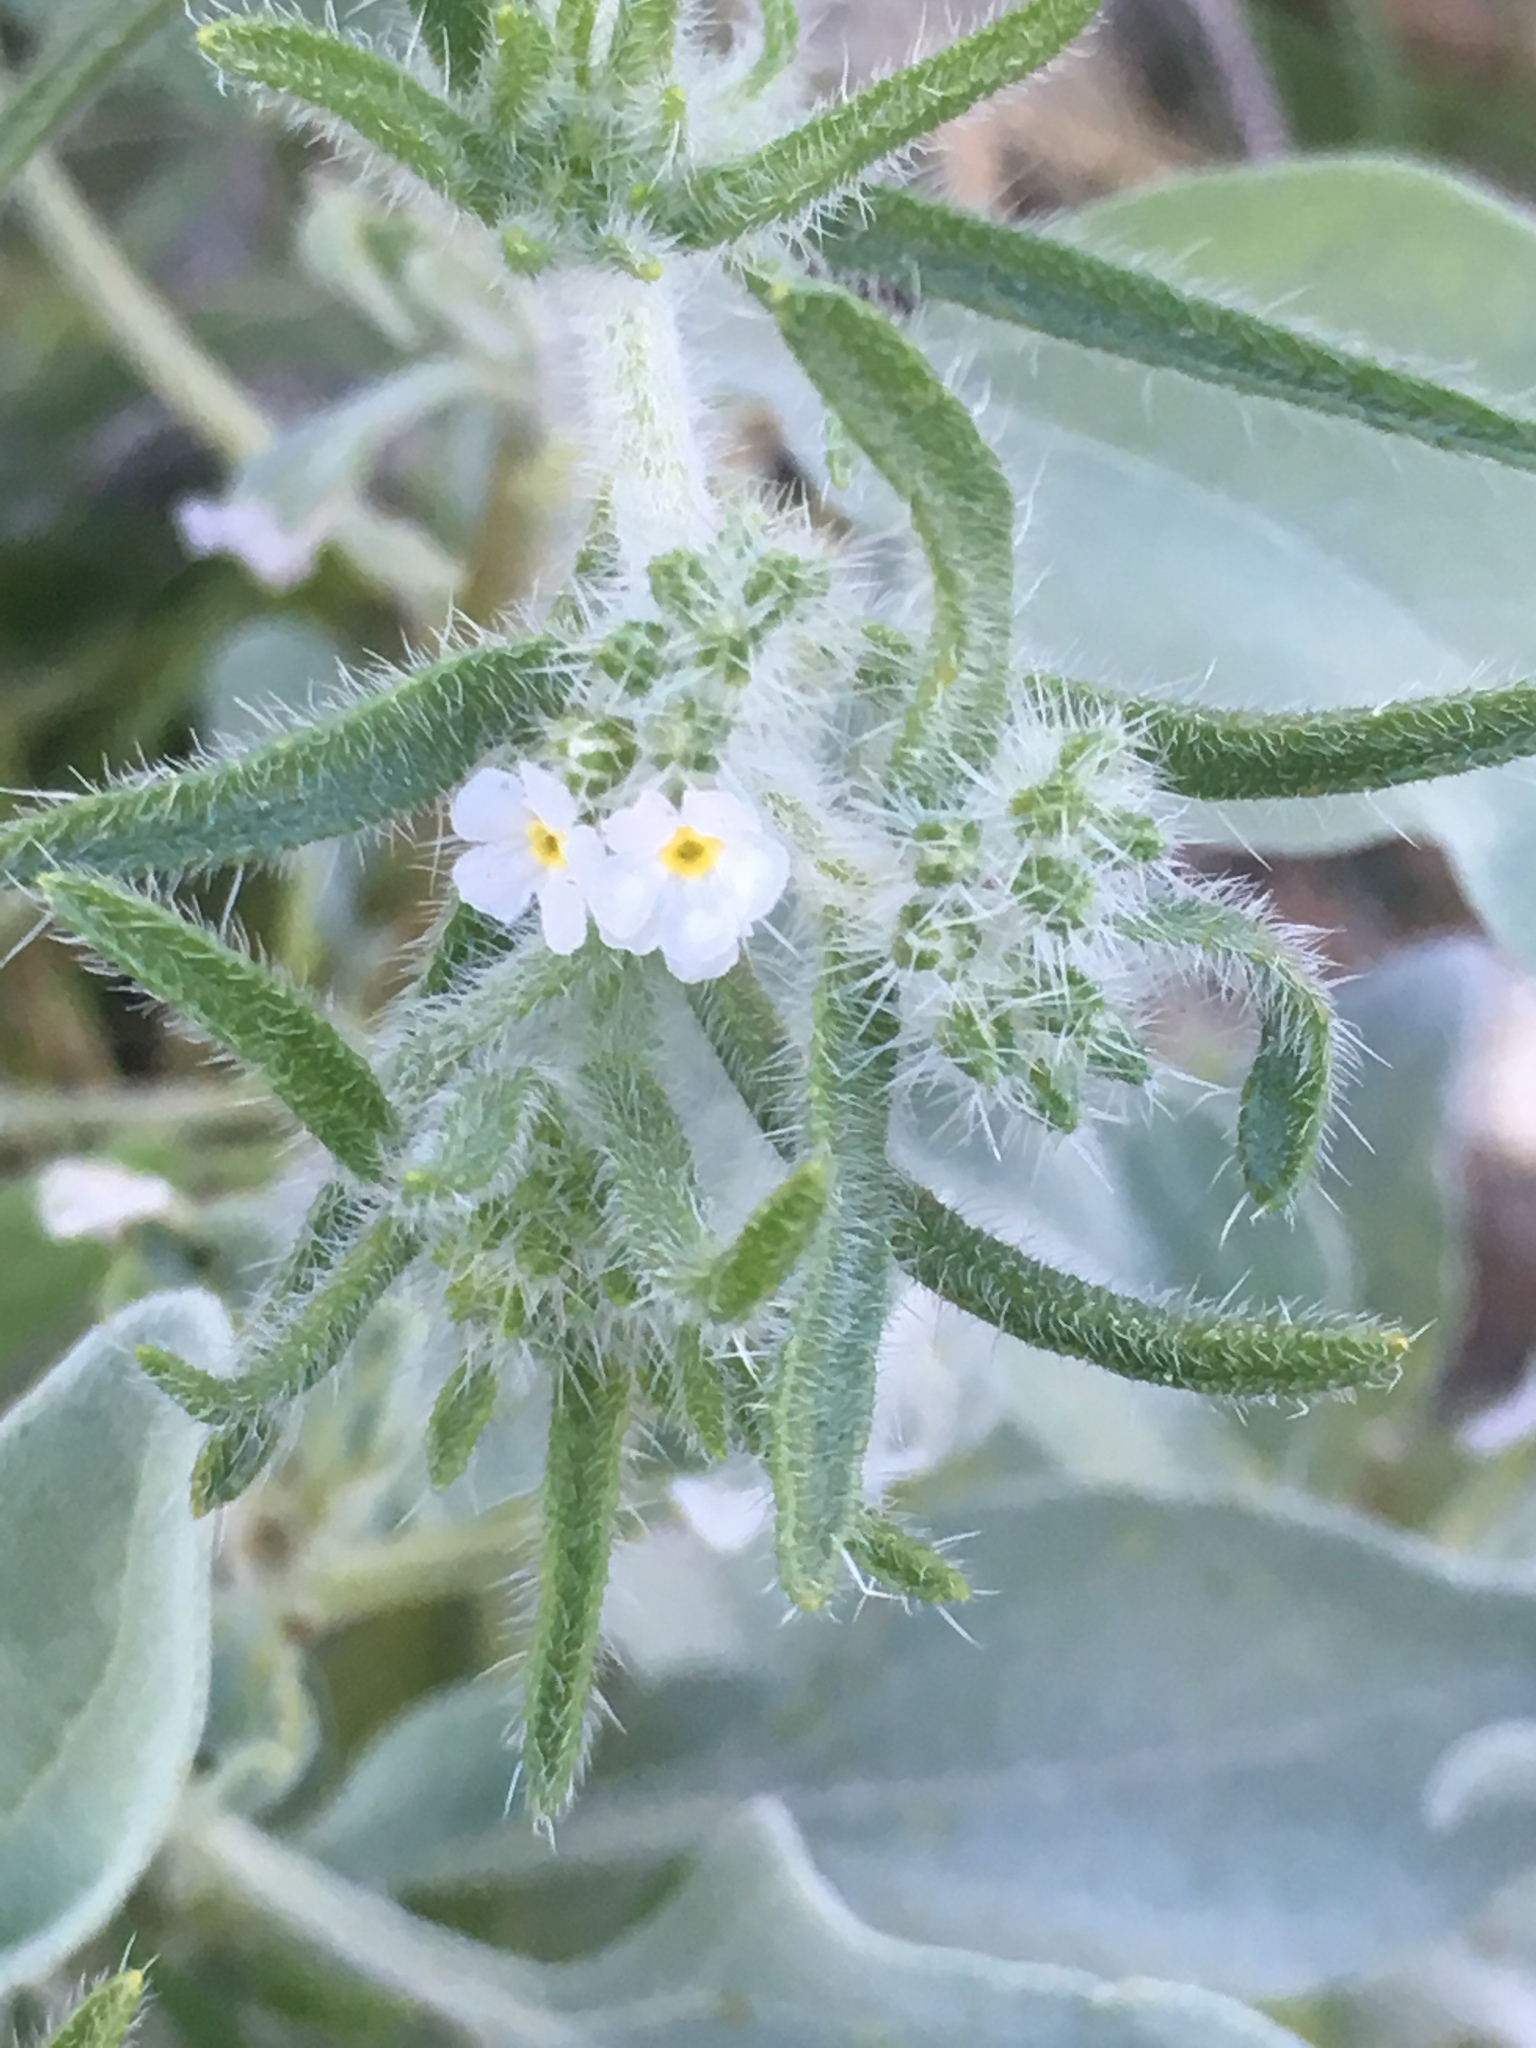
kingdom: Plantae
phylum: Tracheophyta
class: Magnoliopsida
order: Boraginales
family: Boraginaceae
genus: Johnstonella
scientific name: Johnstonella angustifolia
